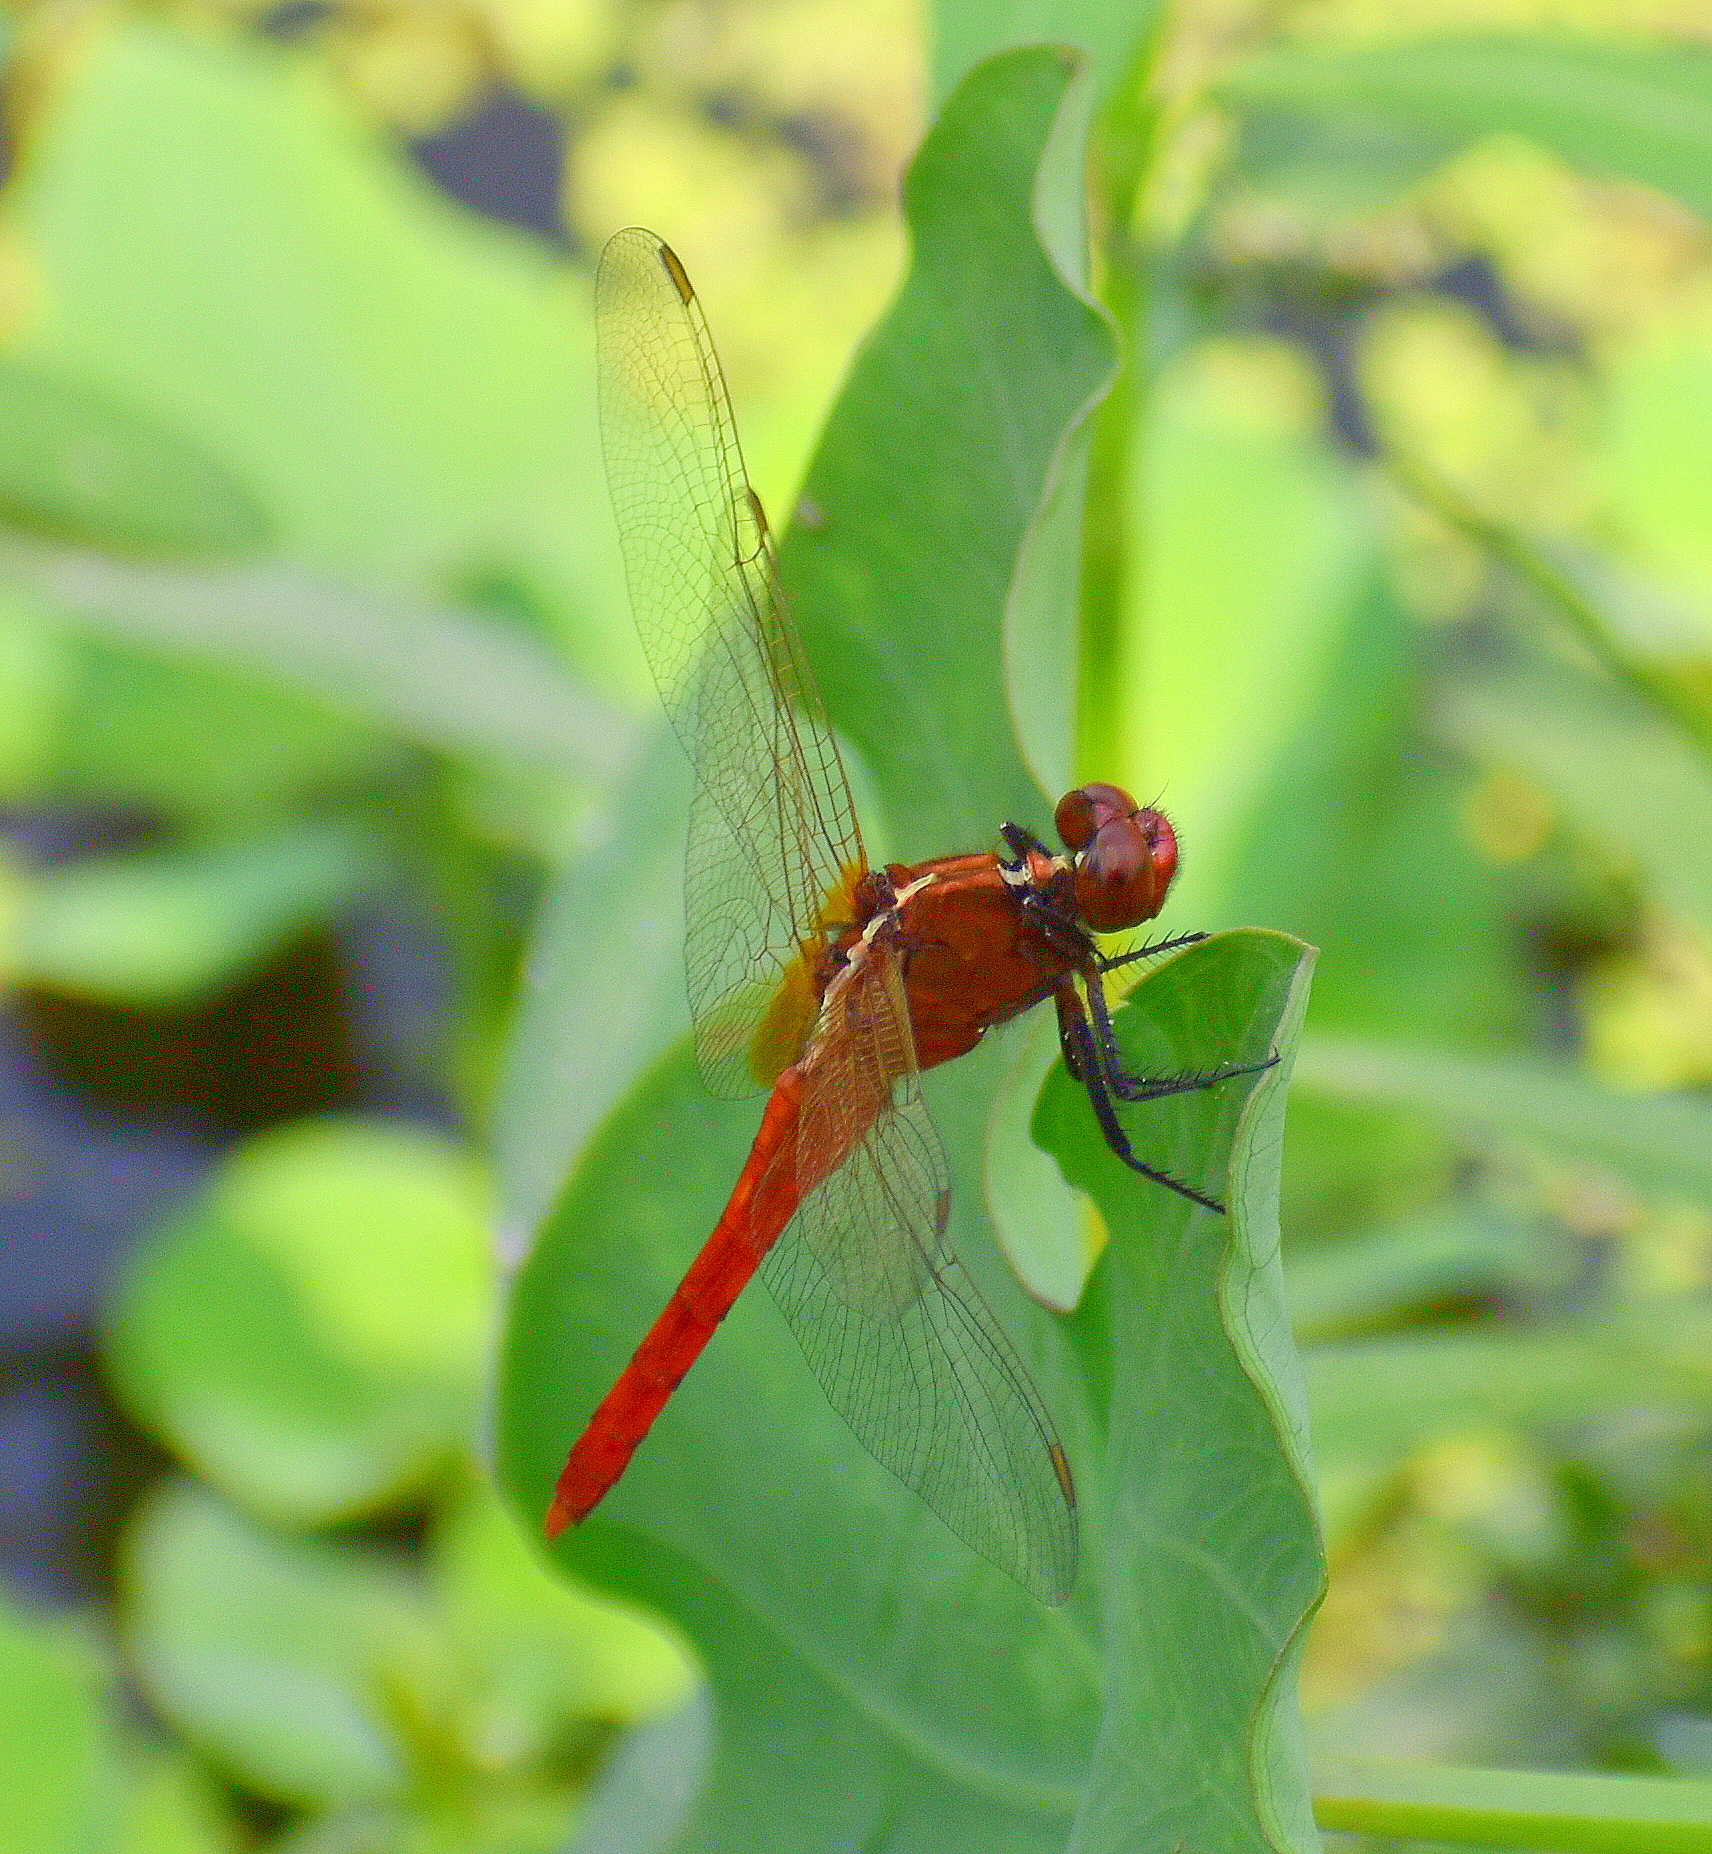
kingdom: Animalia
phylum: Arthropoda
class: Insecta
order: Odonata
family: Libellulidae
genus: Rhodothemis
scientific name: Rhodothemis rufa
